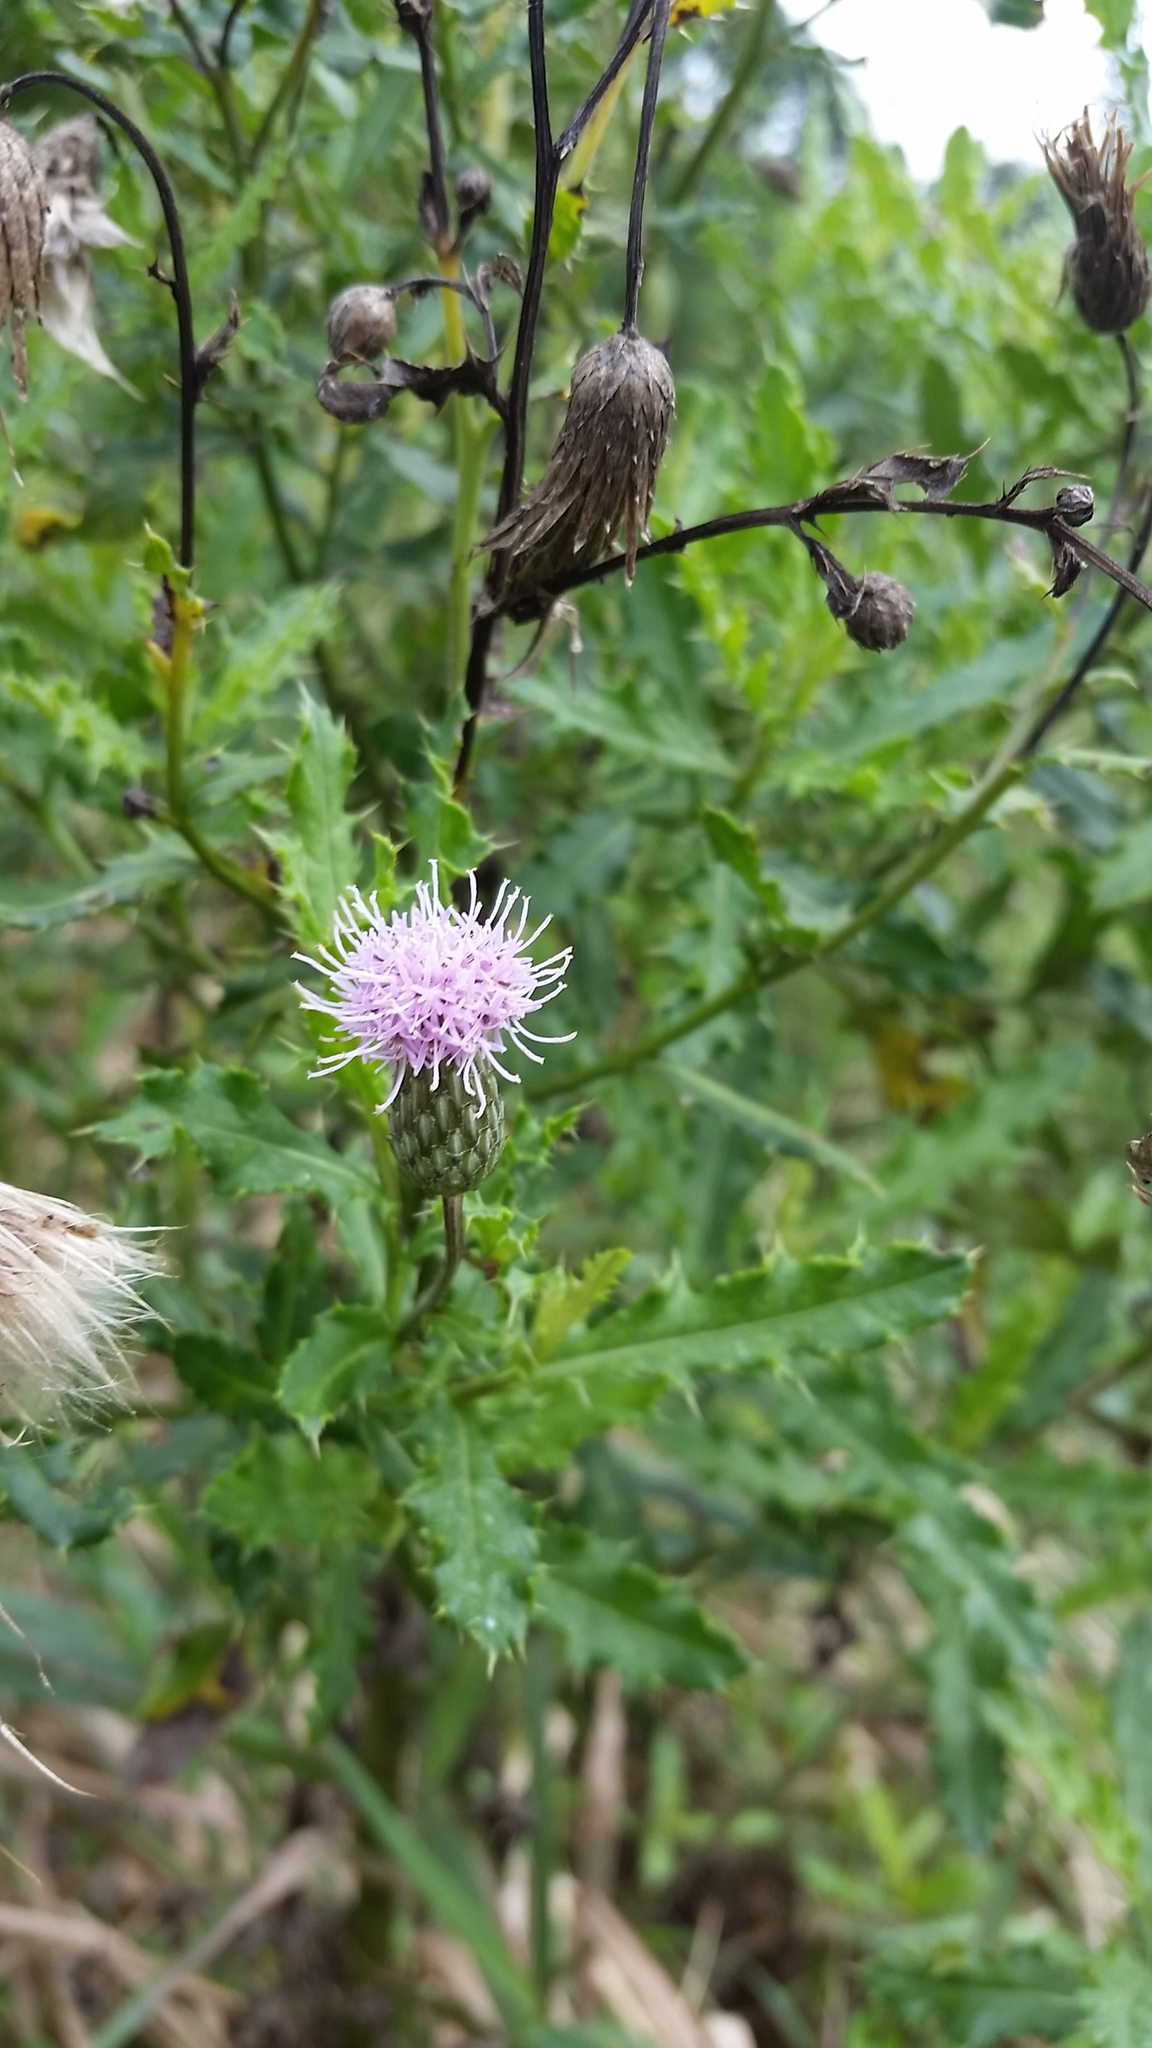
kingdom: Plantae
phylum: Tracheophyta
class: Magnoliopsida
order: Asterales
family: Asteraceae
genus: Cirsium
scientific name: Cirsium arvense
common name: Creeping thistle
